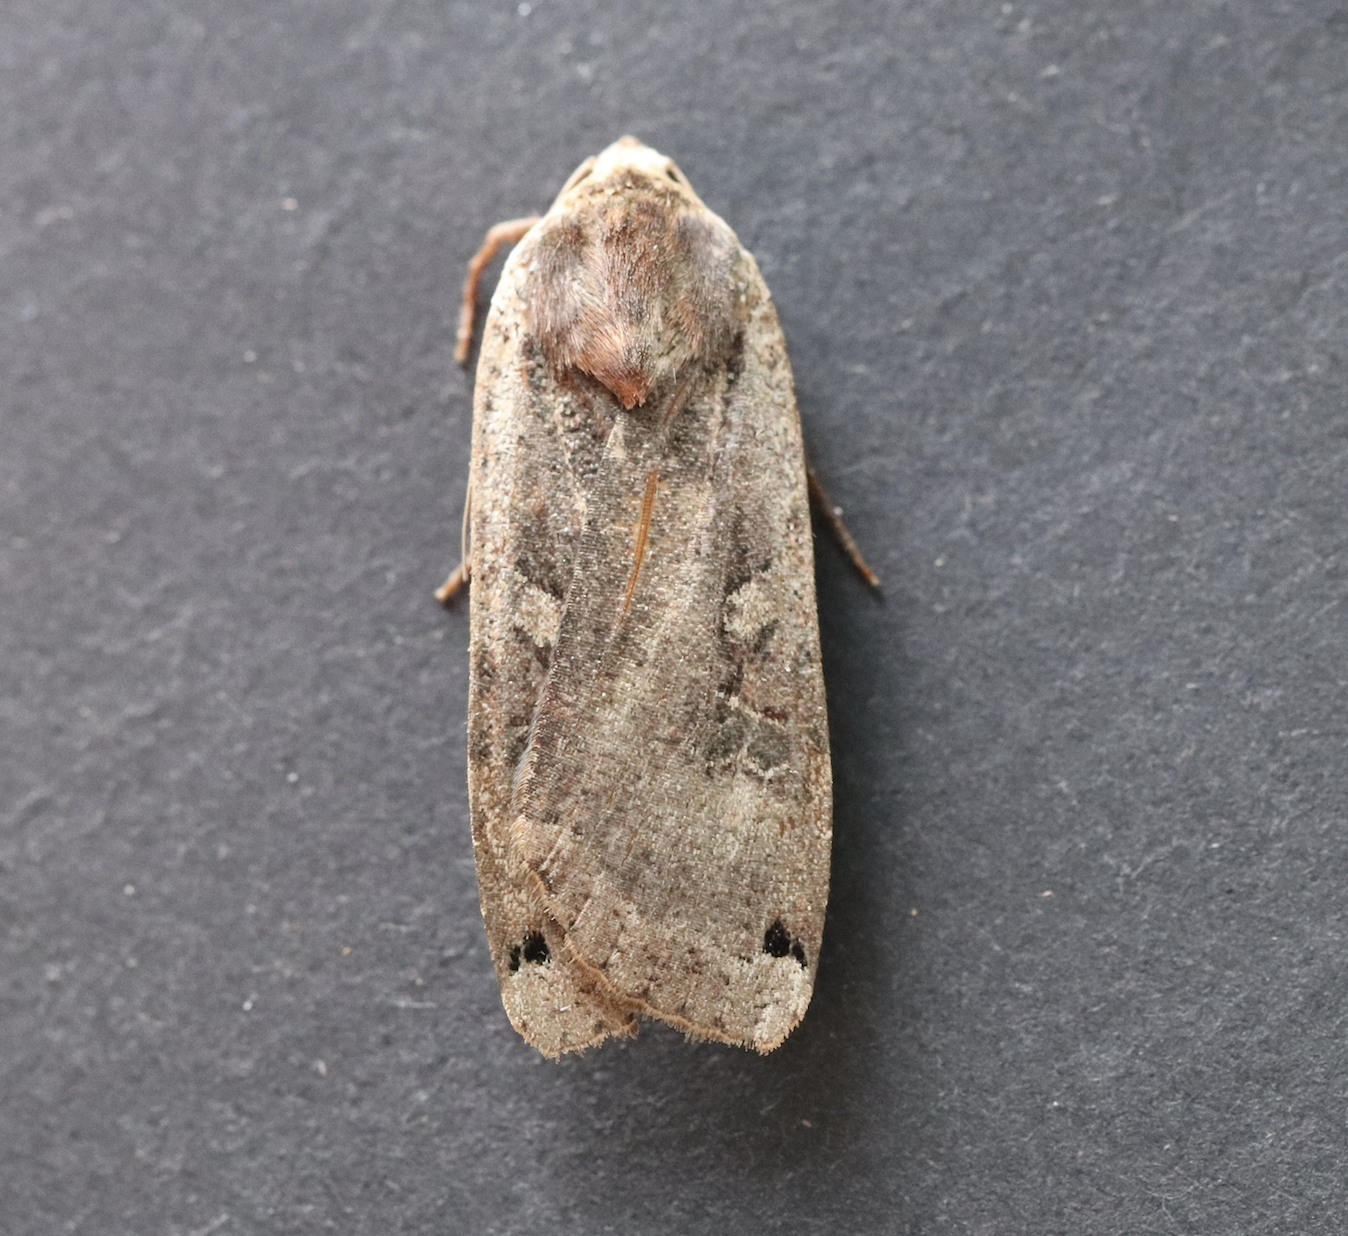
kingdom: Animalia
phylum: Arthropoda
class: Insecta
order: Lepidoptera
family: Noctuidae
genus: Noctua
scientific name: Noctua pronuba
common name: Large yellow underwing
